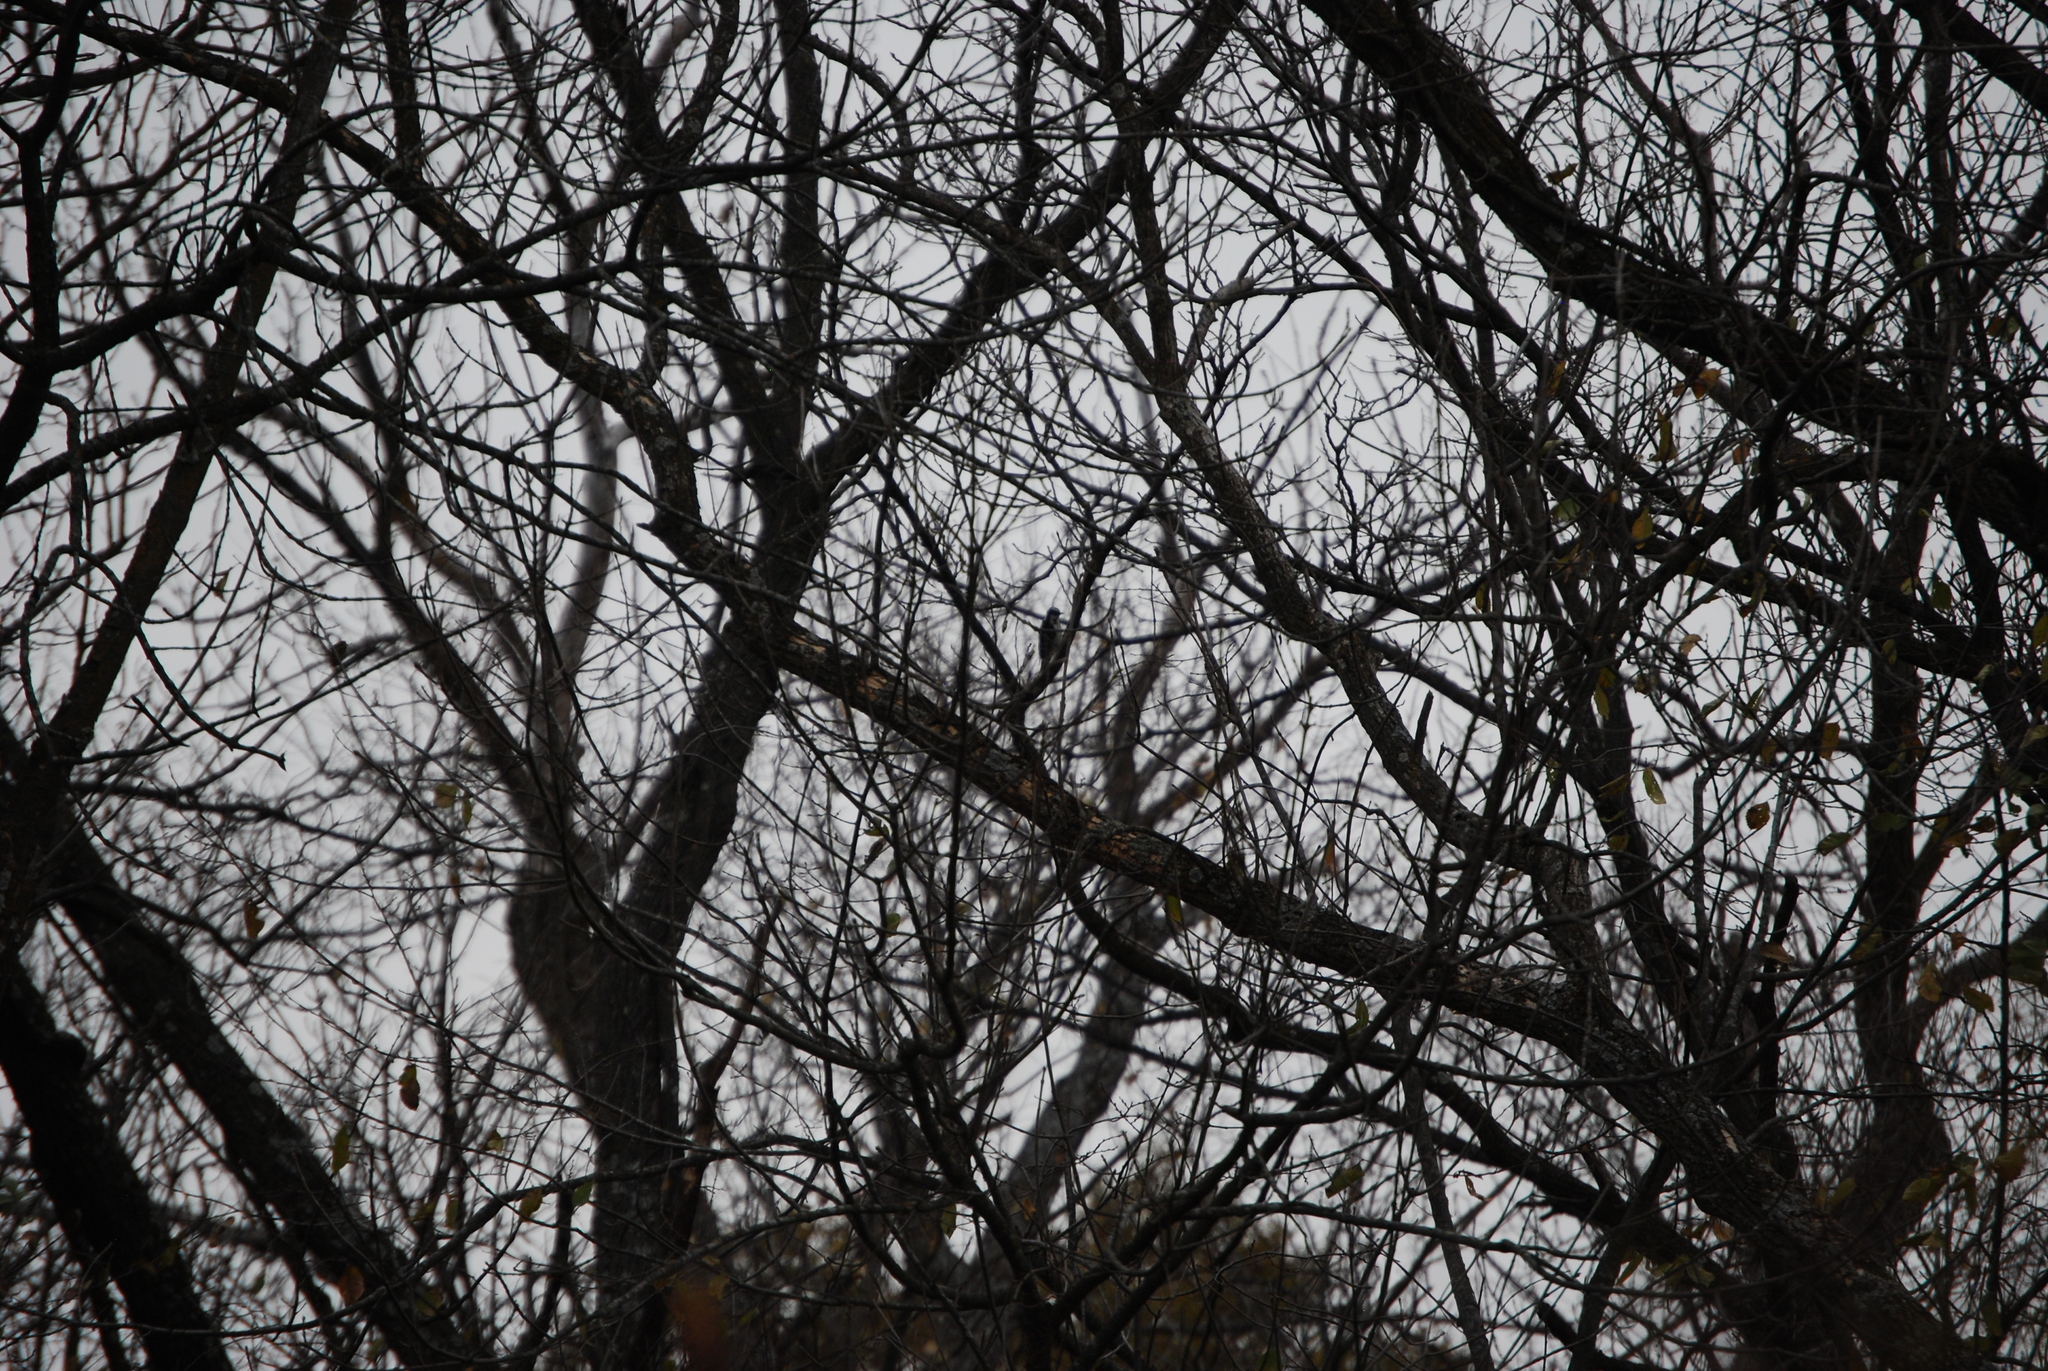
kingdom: Animalia
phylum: Chordata
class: Aves
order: Piciformes
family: Picidae
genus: Dryobates
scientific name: Dryobates
